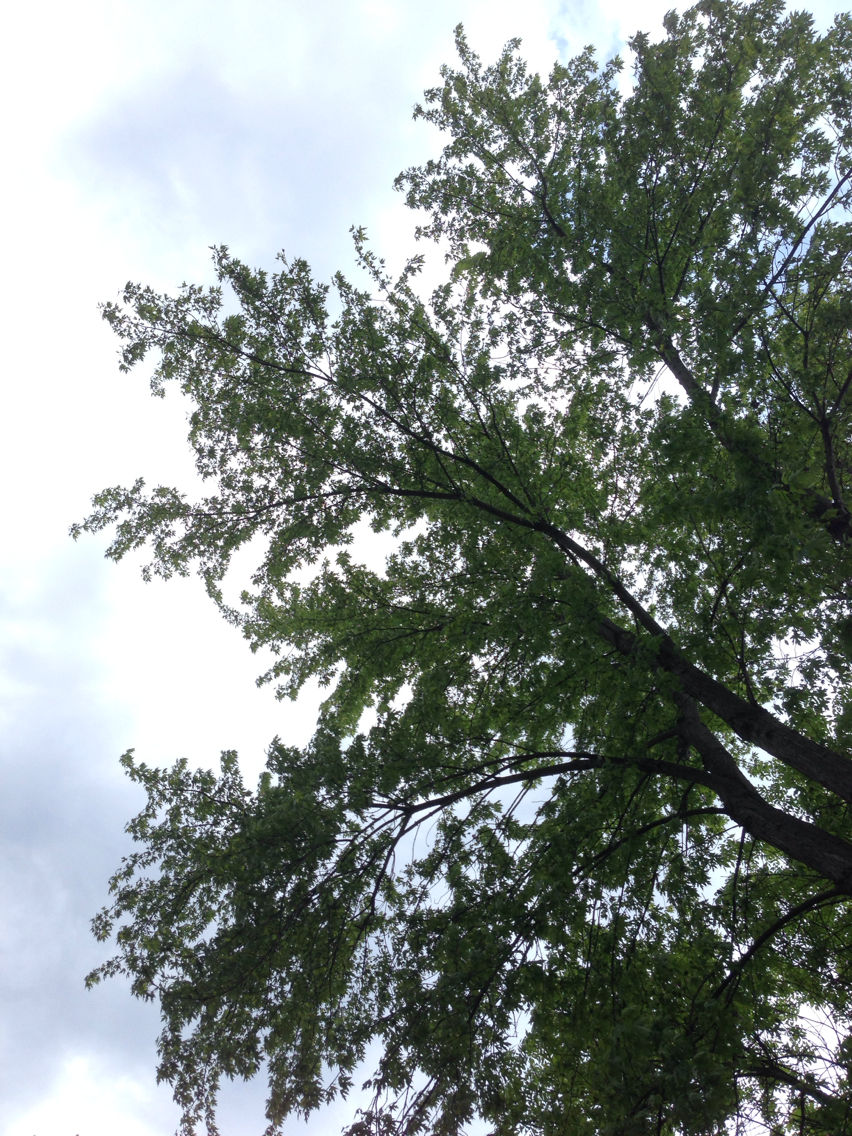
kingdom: Plantae
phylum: Tracheophyta
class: Magnoliopsida
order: Sapindales
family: Sapindaceae
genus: Acer
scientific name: Acer saccharinum
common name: Silver maple
